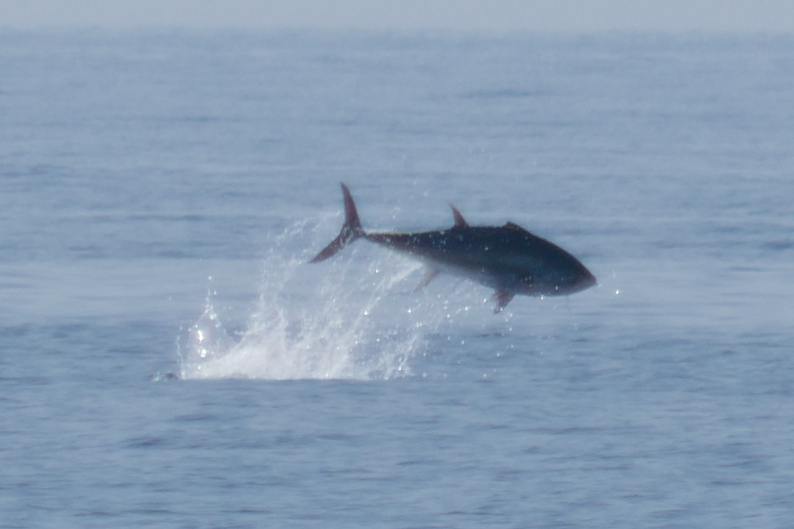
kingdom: Animalia
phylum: Chordata
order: Perciformes
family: Scombridae
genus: Thunnus
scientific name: Thunnus thynnus
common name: Bluefin tuna
